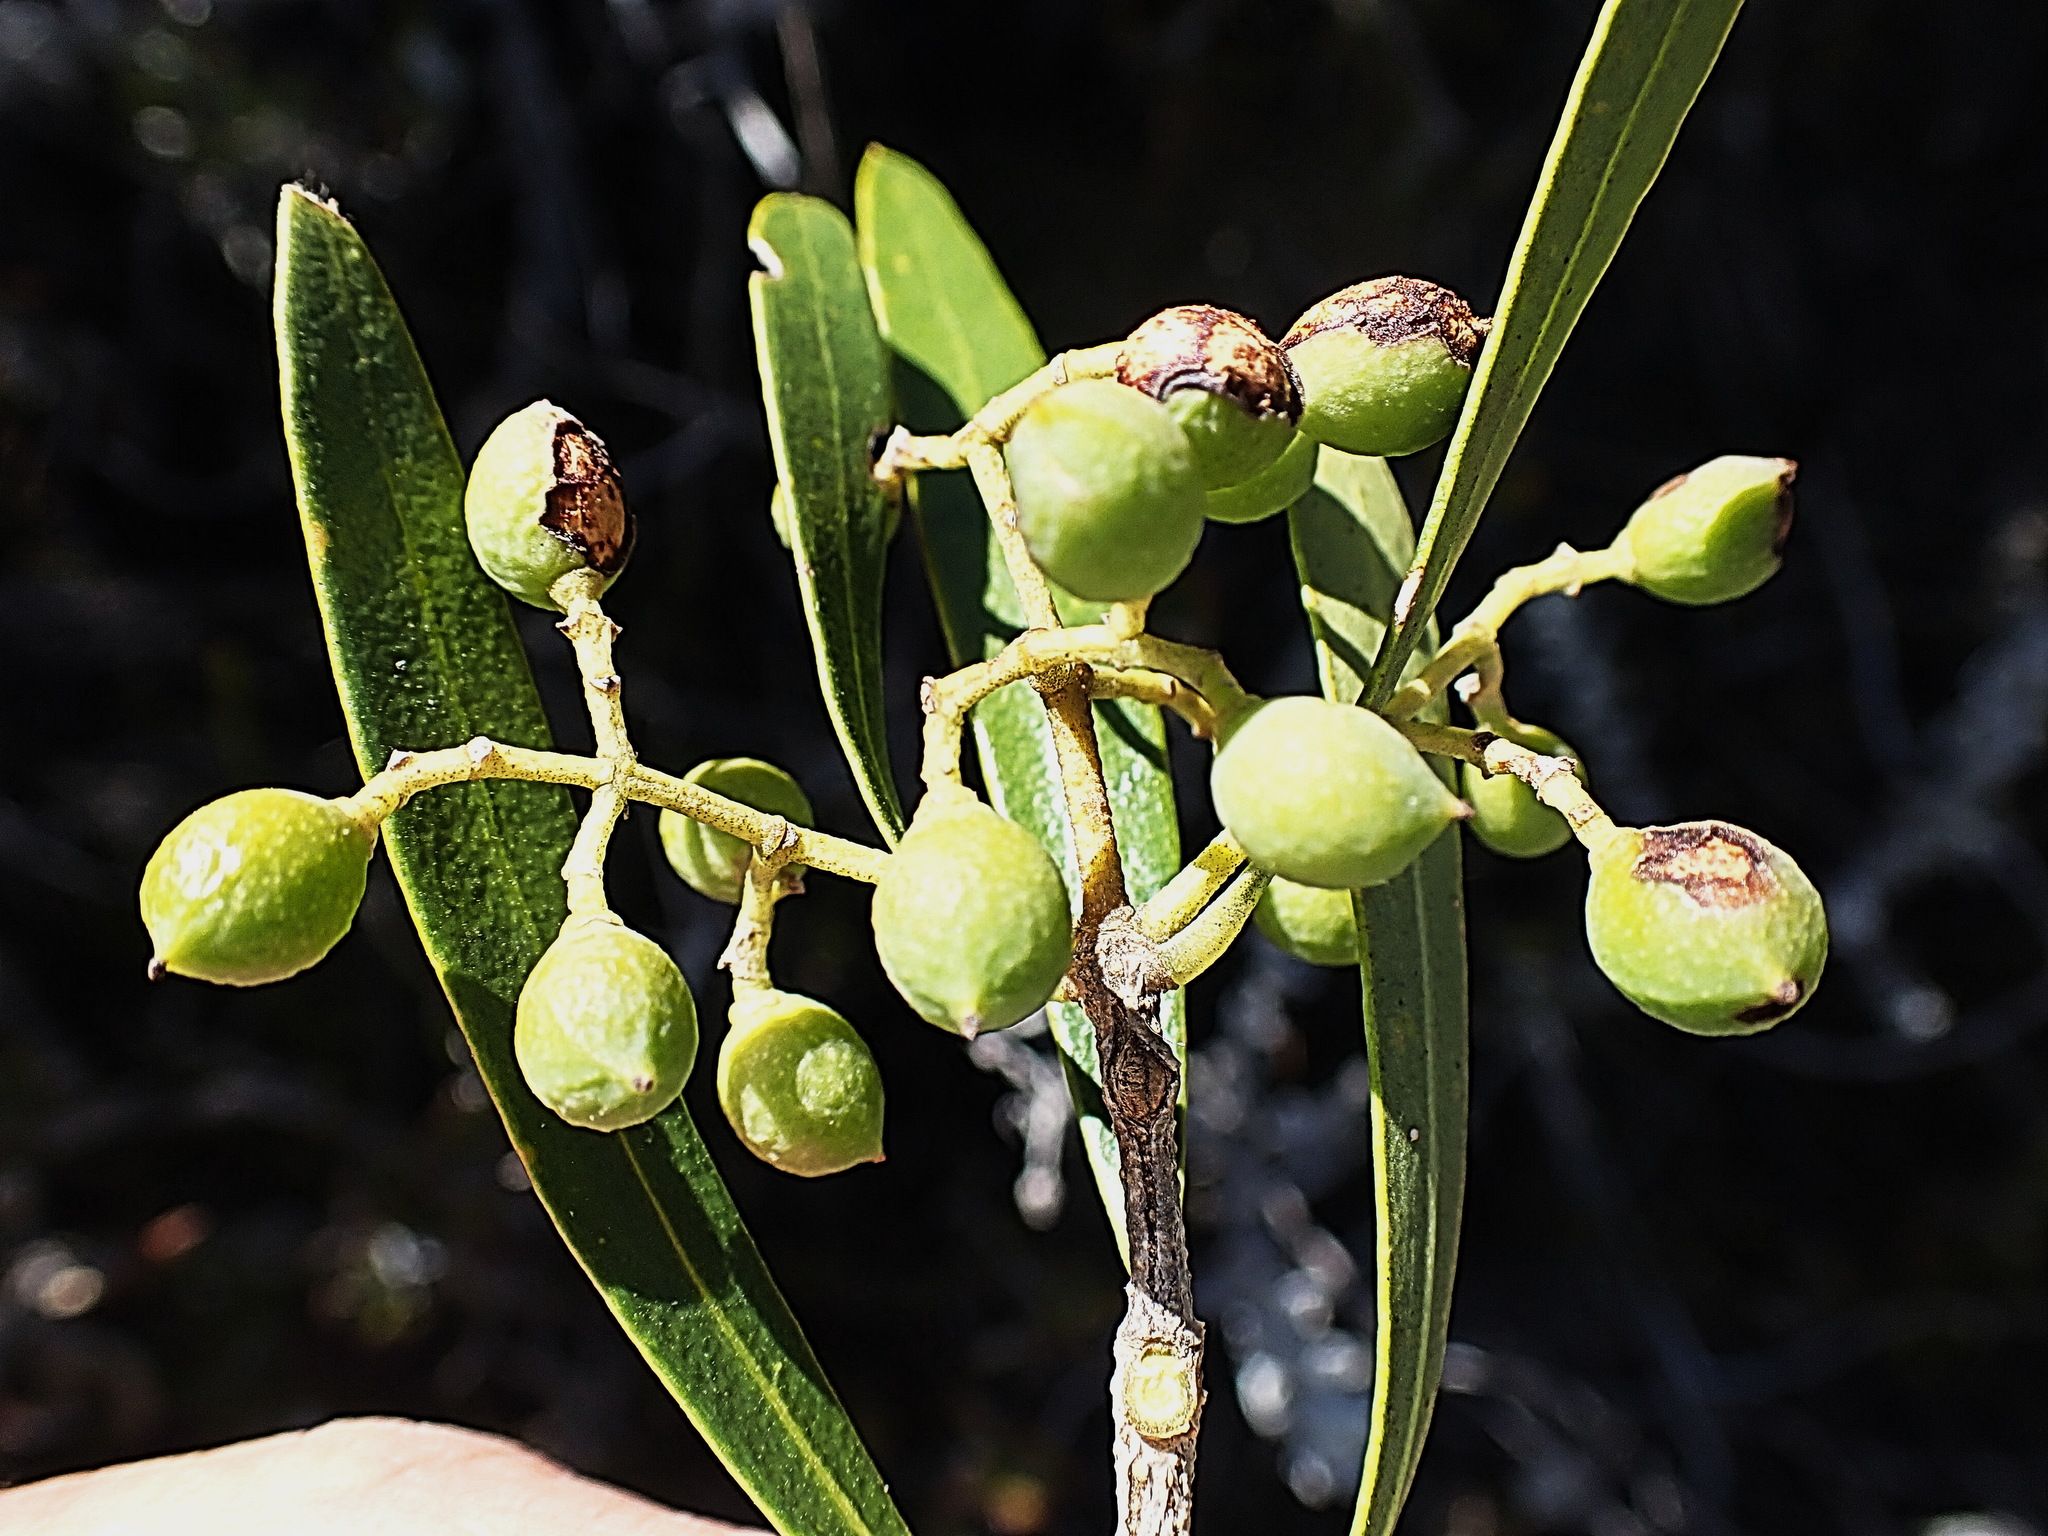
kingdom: Plantae
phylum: Tracheophyta
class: Magnoliopsida
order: Lamiales
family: Oleaceae
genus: Olea
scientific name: Olea exasperata
